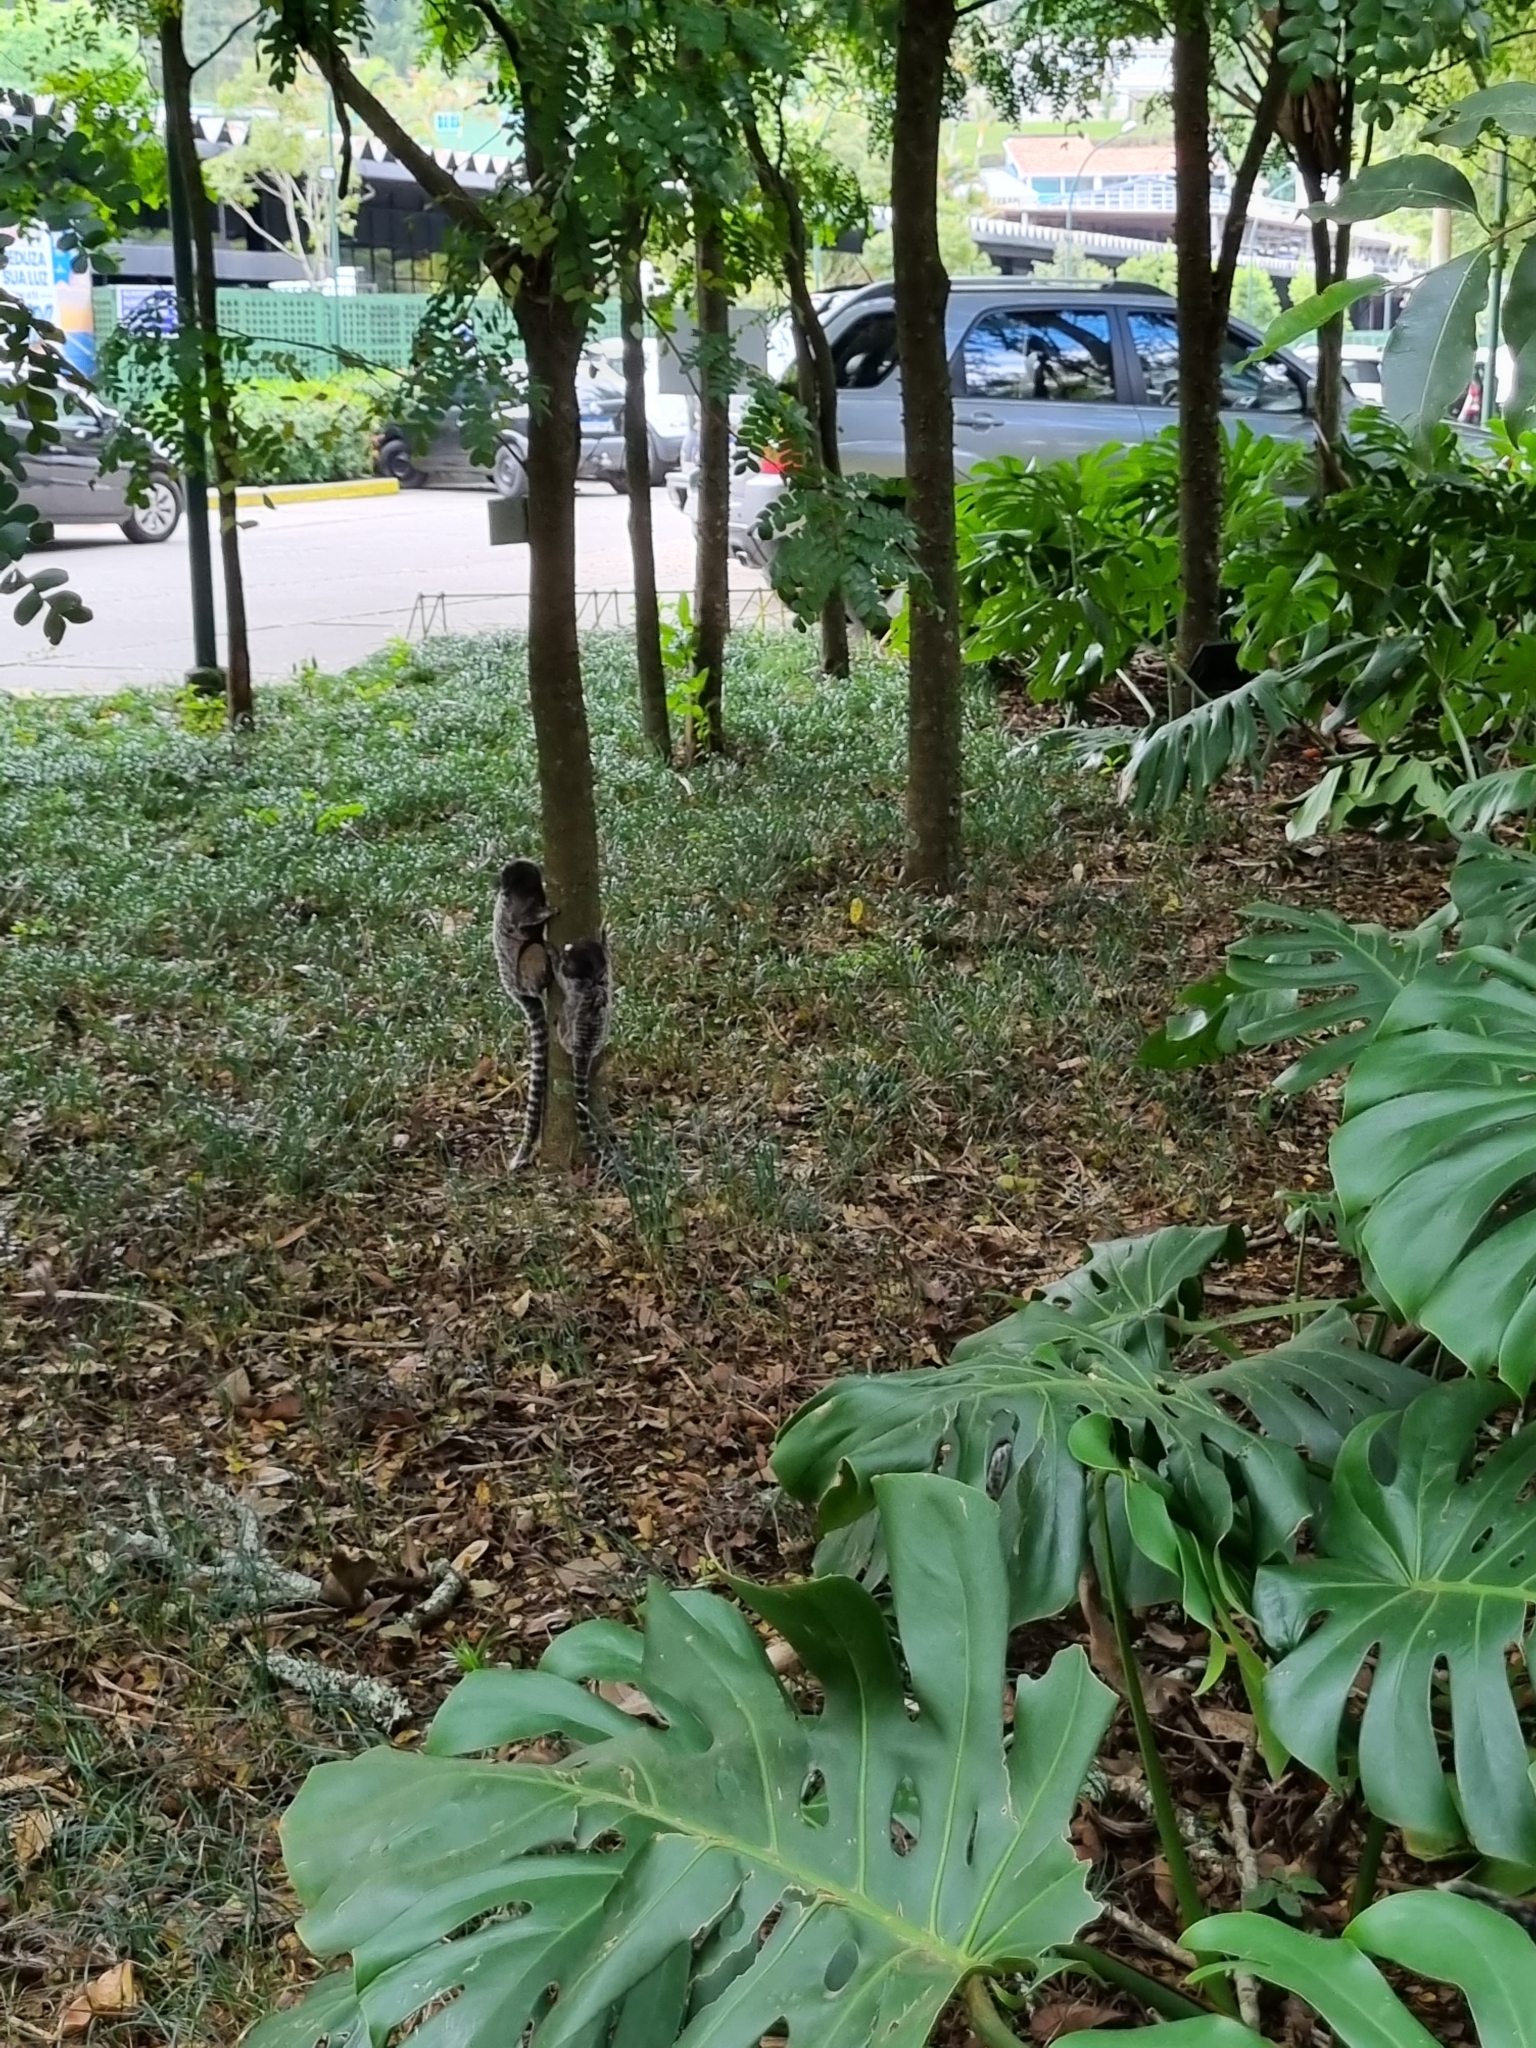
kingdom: Animalia
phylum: Chordata
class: Mammalia
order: Primates
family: Callitrichidae
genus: Callithrix
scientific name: Callithrix penicillata
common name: Black-tufted marmoset
